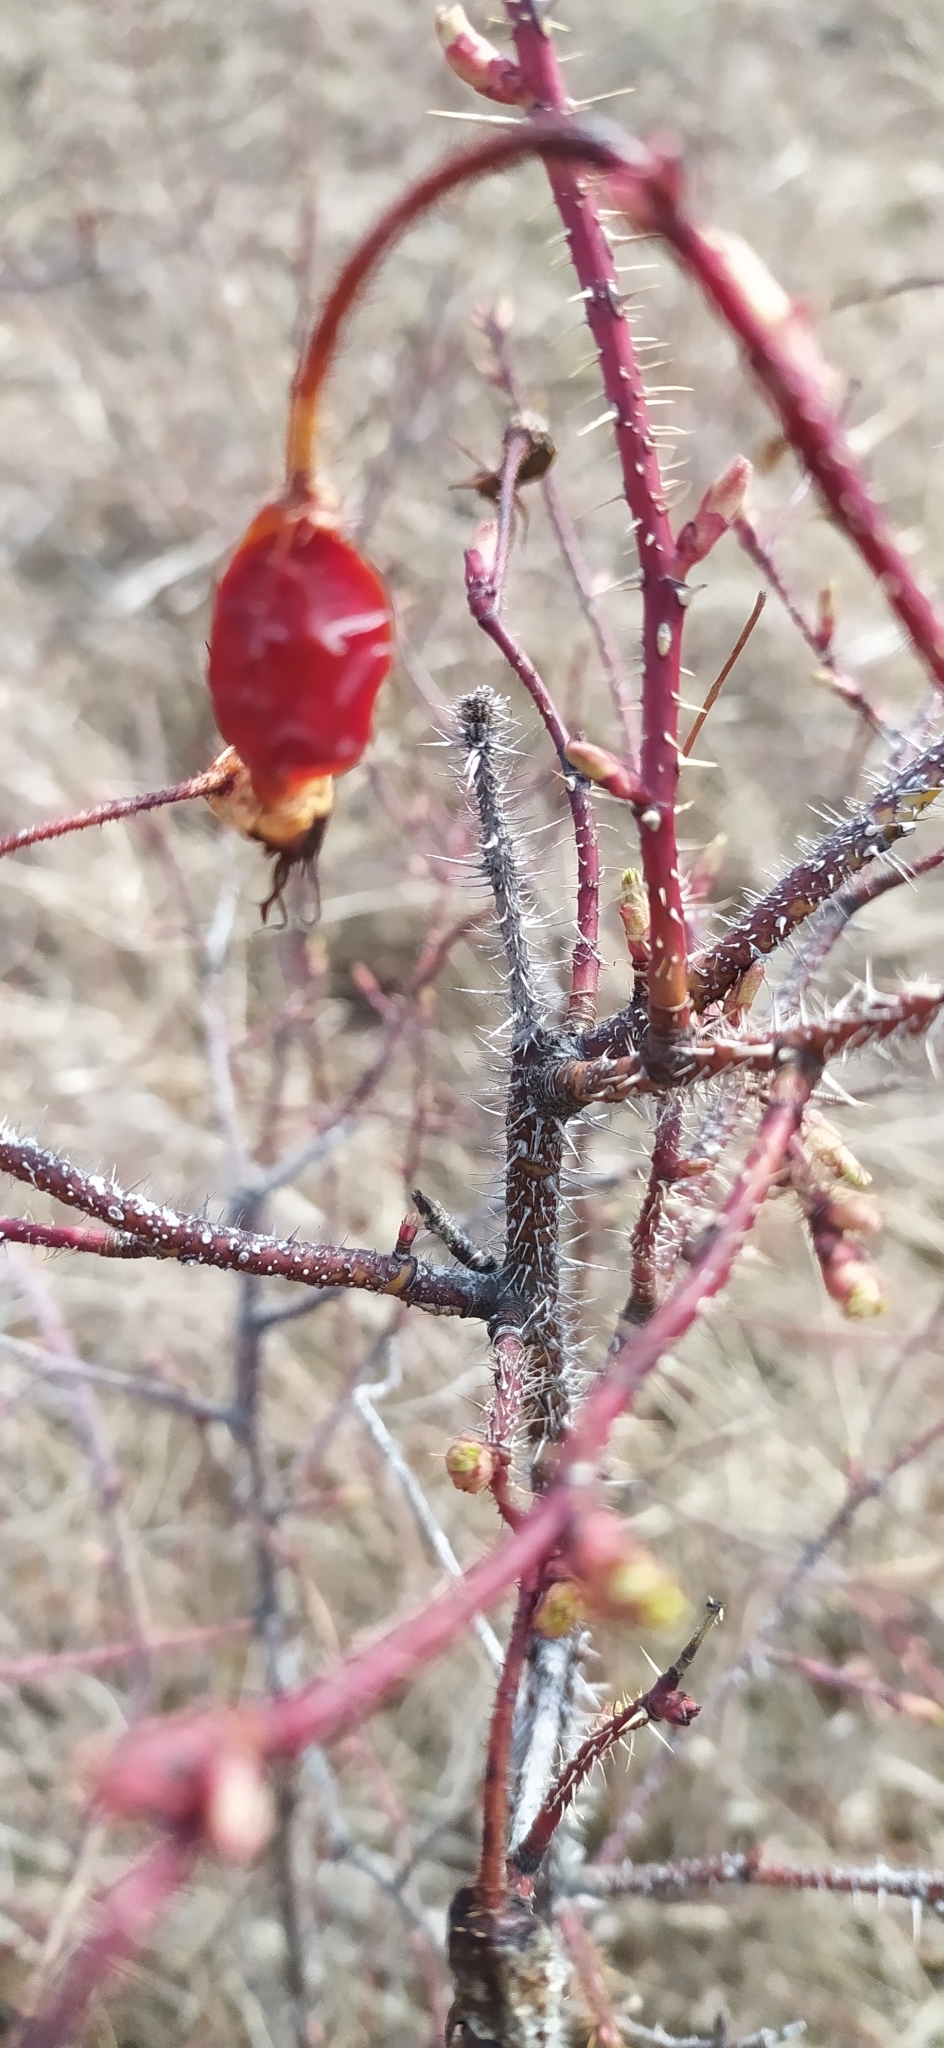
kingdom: Plantae
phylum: Tracheophyta
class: Magnoliopsida
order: Rosales
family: Rosaceae
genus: Rosa
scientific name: Rosa acicularis
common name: Prickly rose
